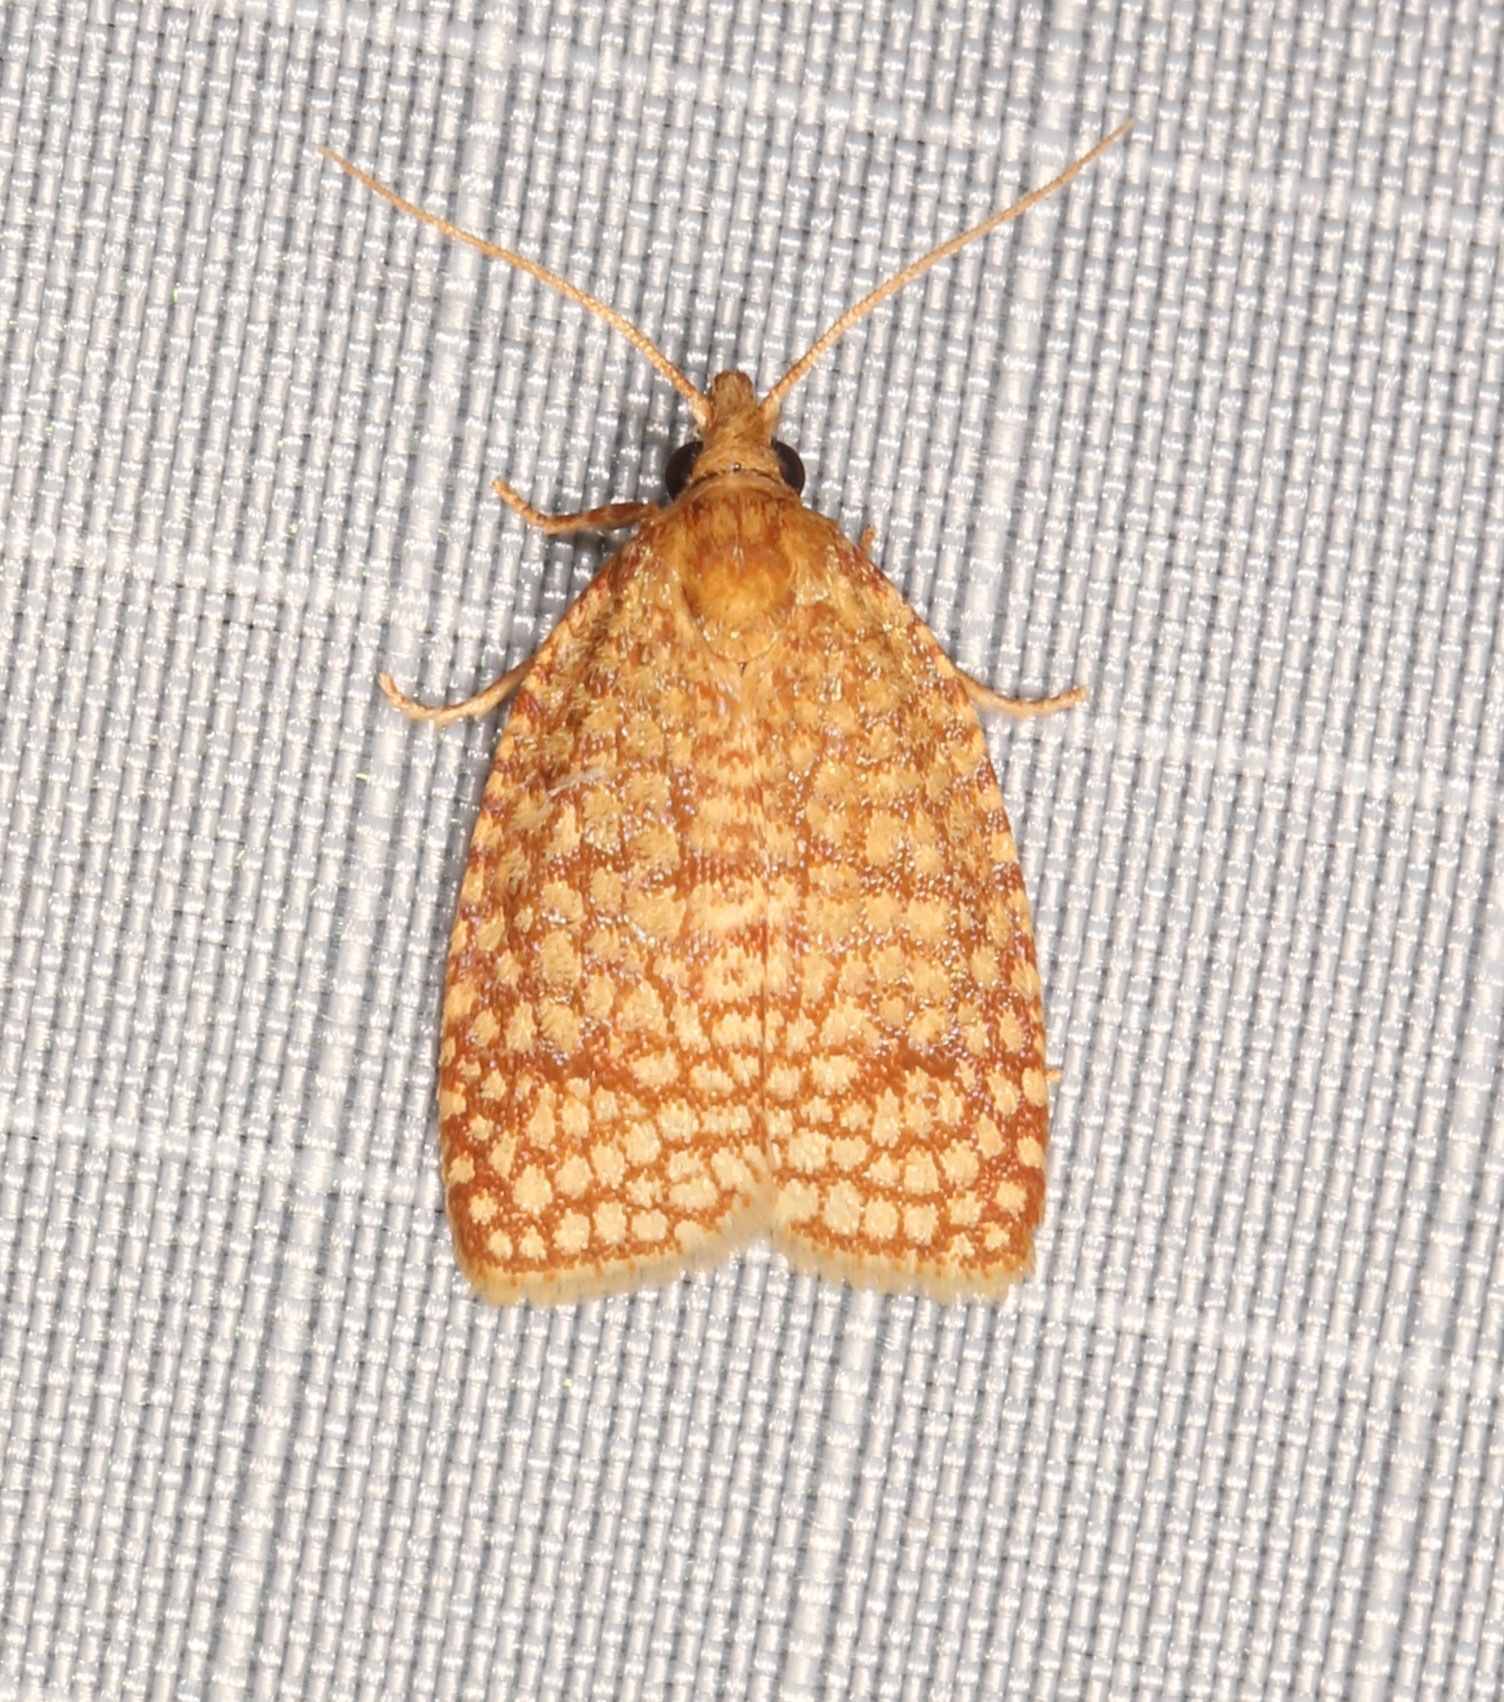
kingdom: Animalia
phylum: Arthropoda
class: Insecta
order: Lepidoptera
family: Tortricidae
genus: Sparganothis
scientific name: Sparganothis caryae
